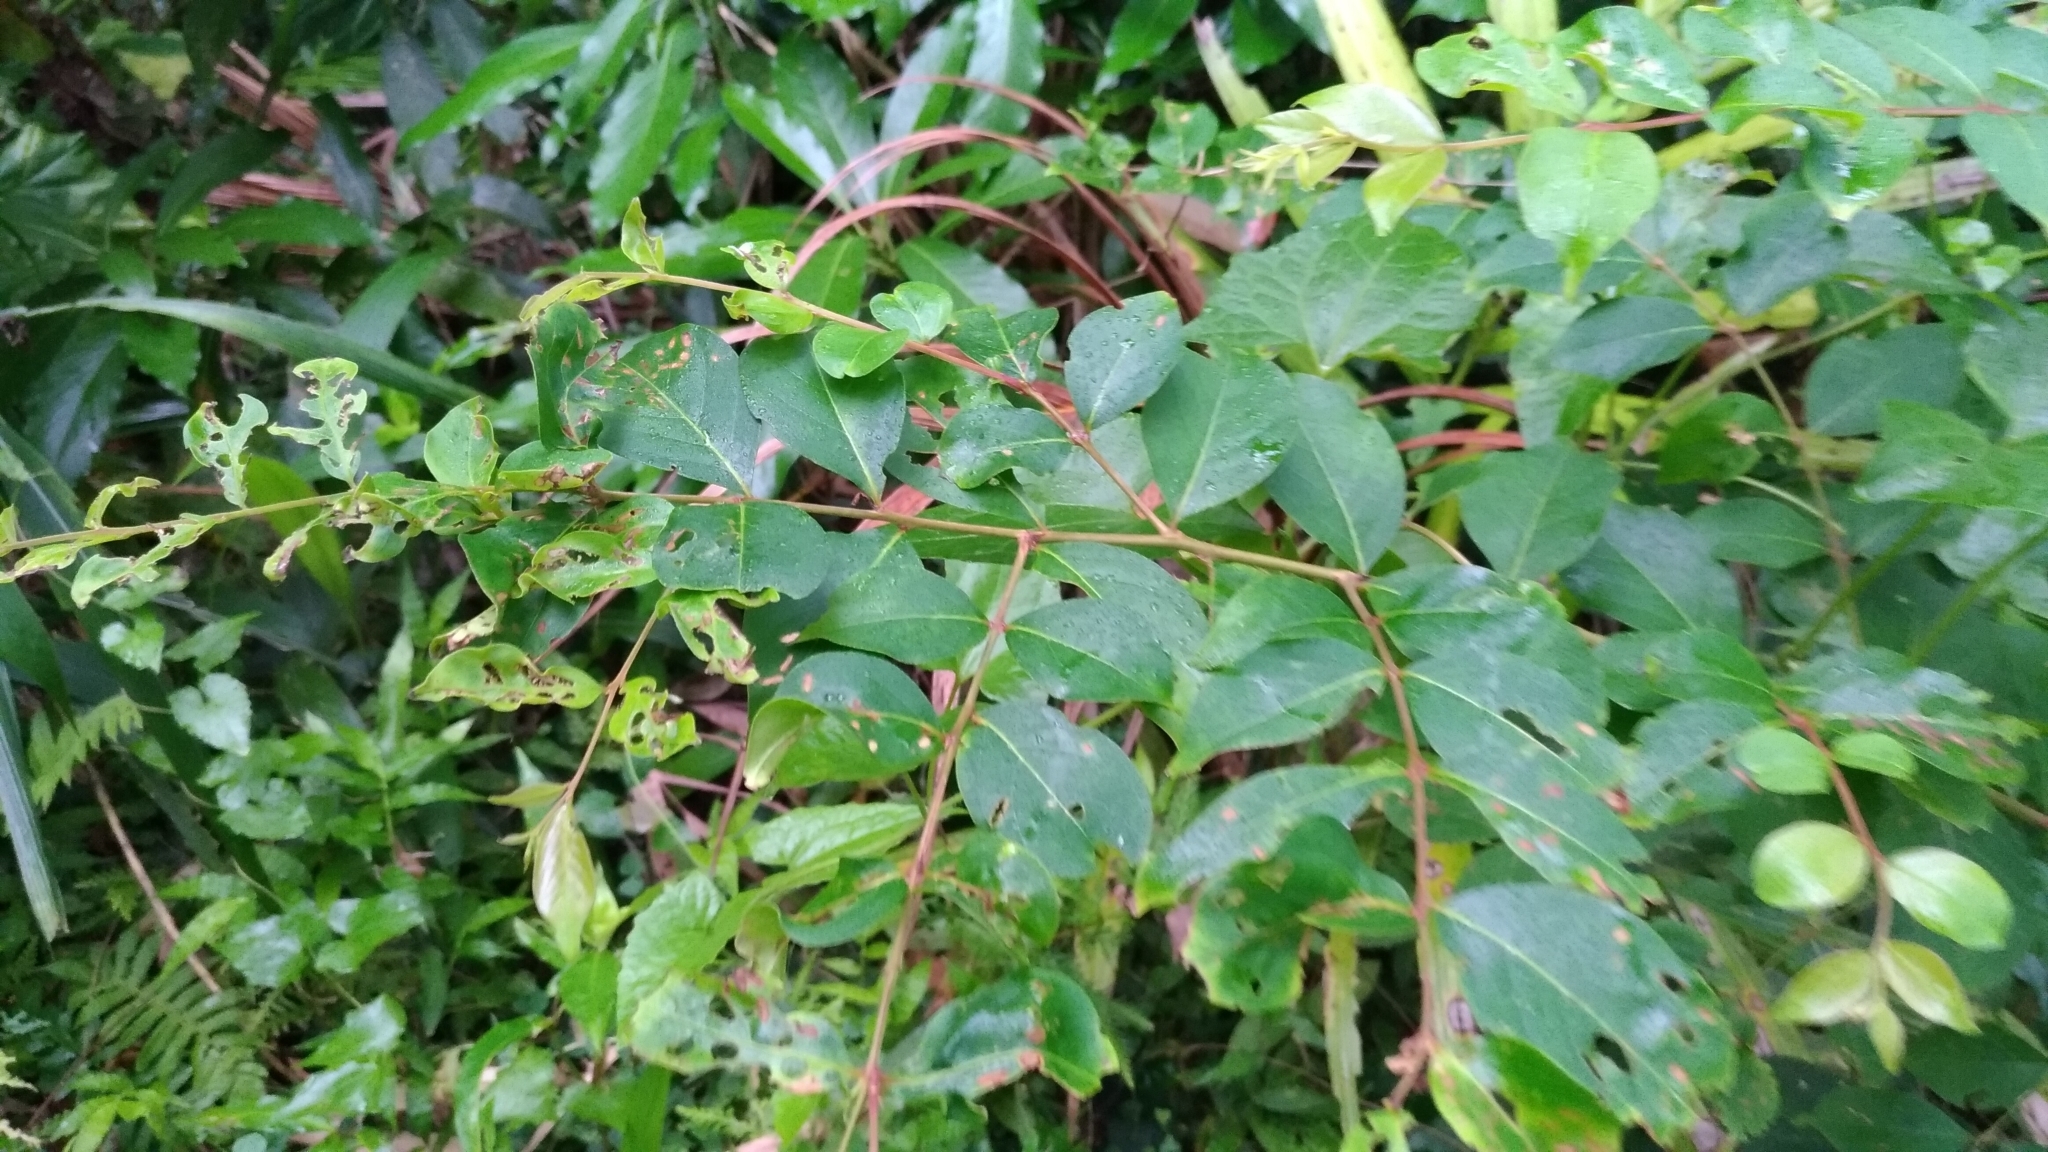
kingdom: Plantae
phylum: Tracheophyta
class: Magnoliopsida
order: Myrtales
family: Lythraceae
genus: Lagerstroemia
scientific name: Lagerstroemia subcostata
